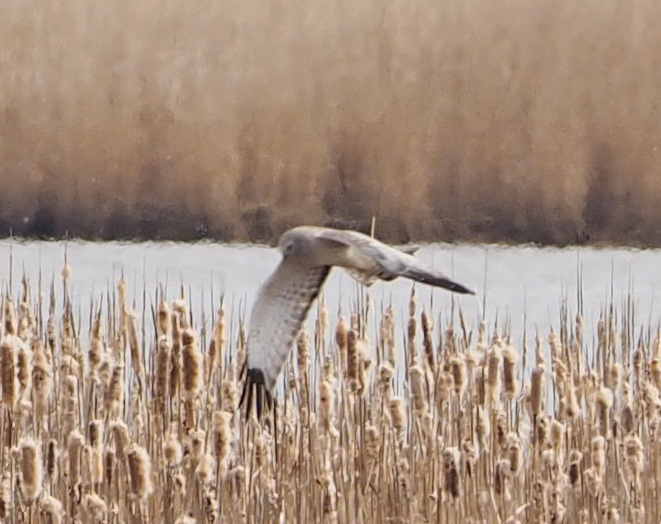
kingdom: Animalia
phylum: Chordata
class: Aves
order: Accipitriformes
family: Accipitridae
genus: Circus
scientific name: Circus cyaneus
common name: Hen harrier
